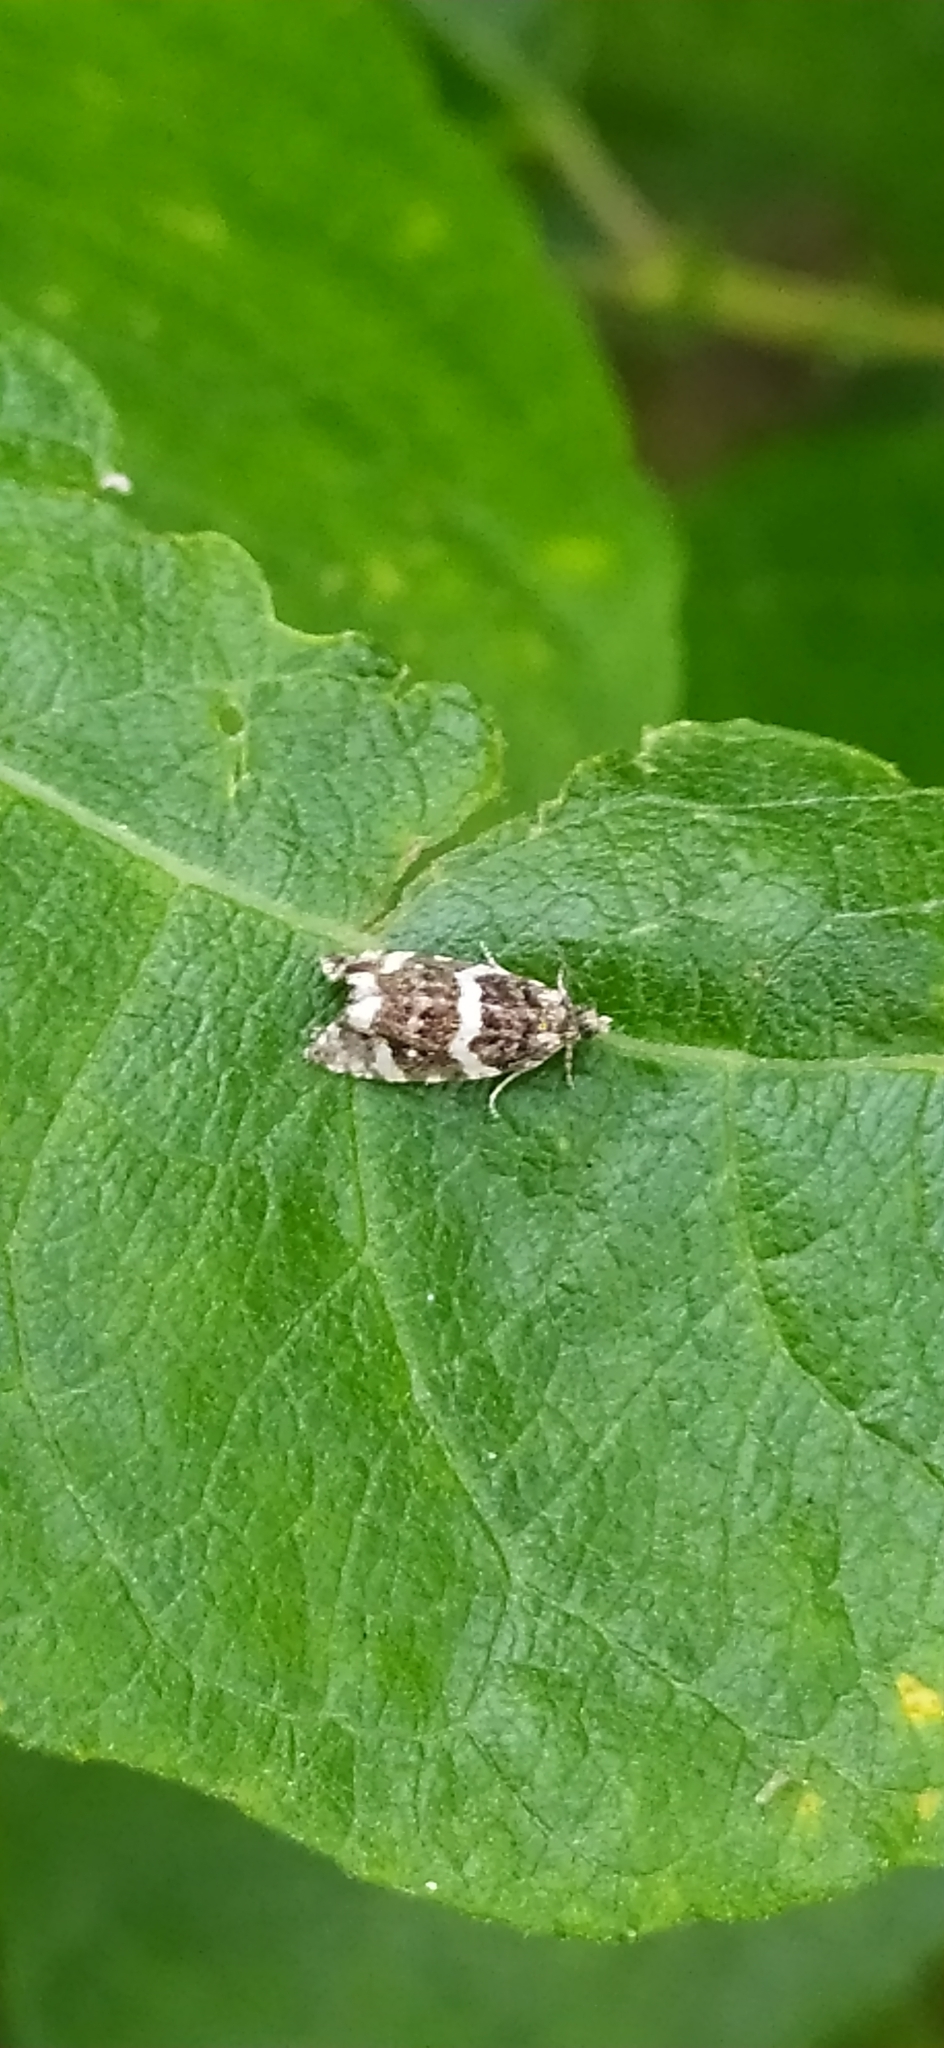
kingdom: Animalia
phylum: Arthropoda
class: Insecta
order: Lepidoptera
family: Tortricidae
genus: Argyroploce
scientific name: Argyroploce bipunctana
